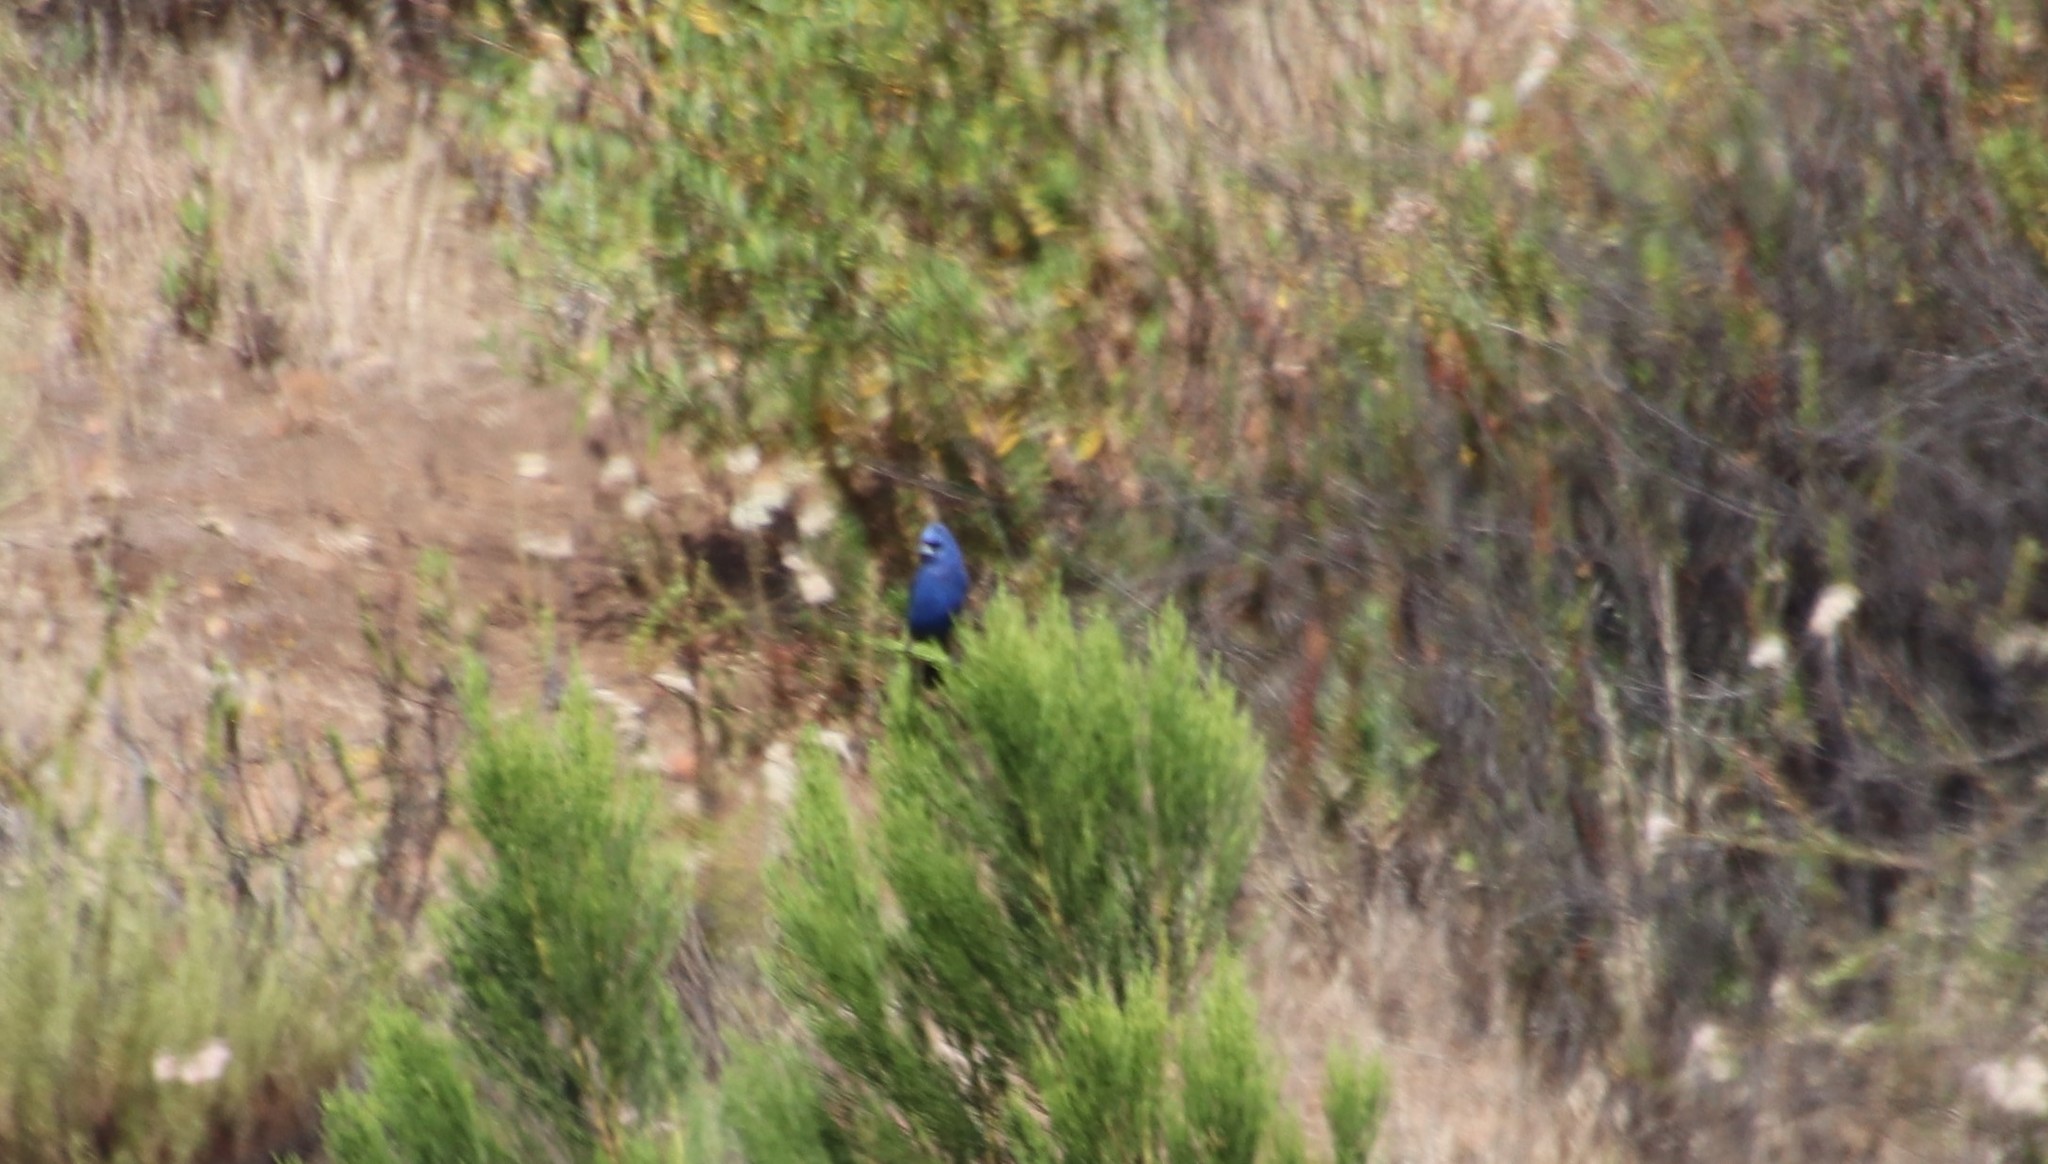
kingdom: Animalia
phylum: Chordata
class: Aves
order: Passeriformes
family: Cardinalidae
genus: Passerina
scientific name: Passerina caerulea
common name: Blue grosbeak
